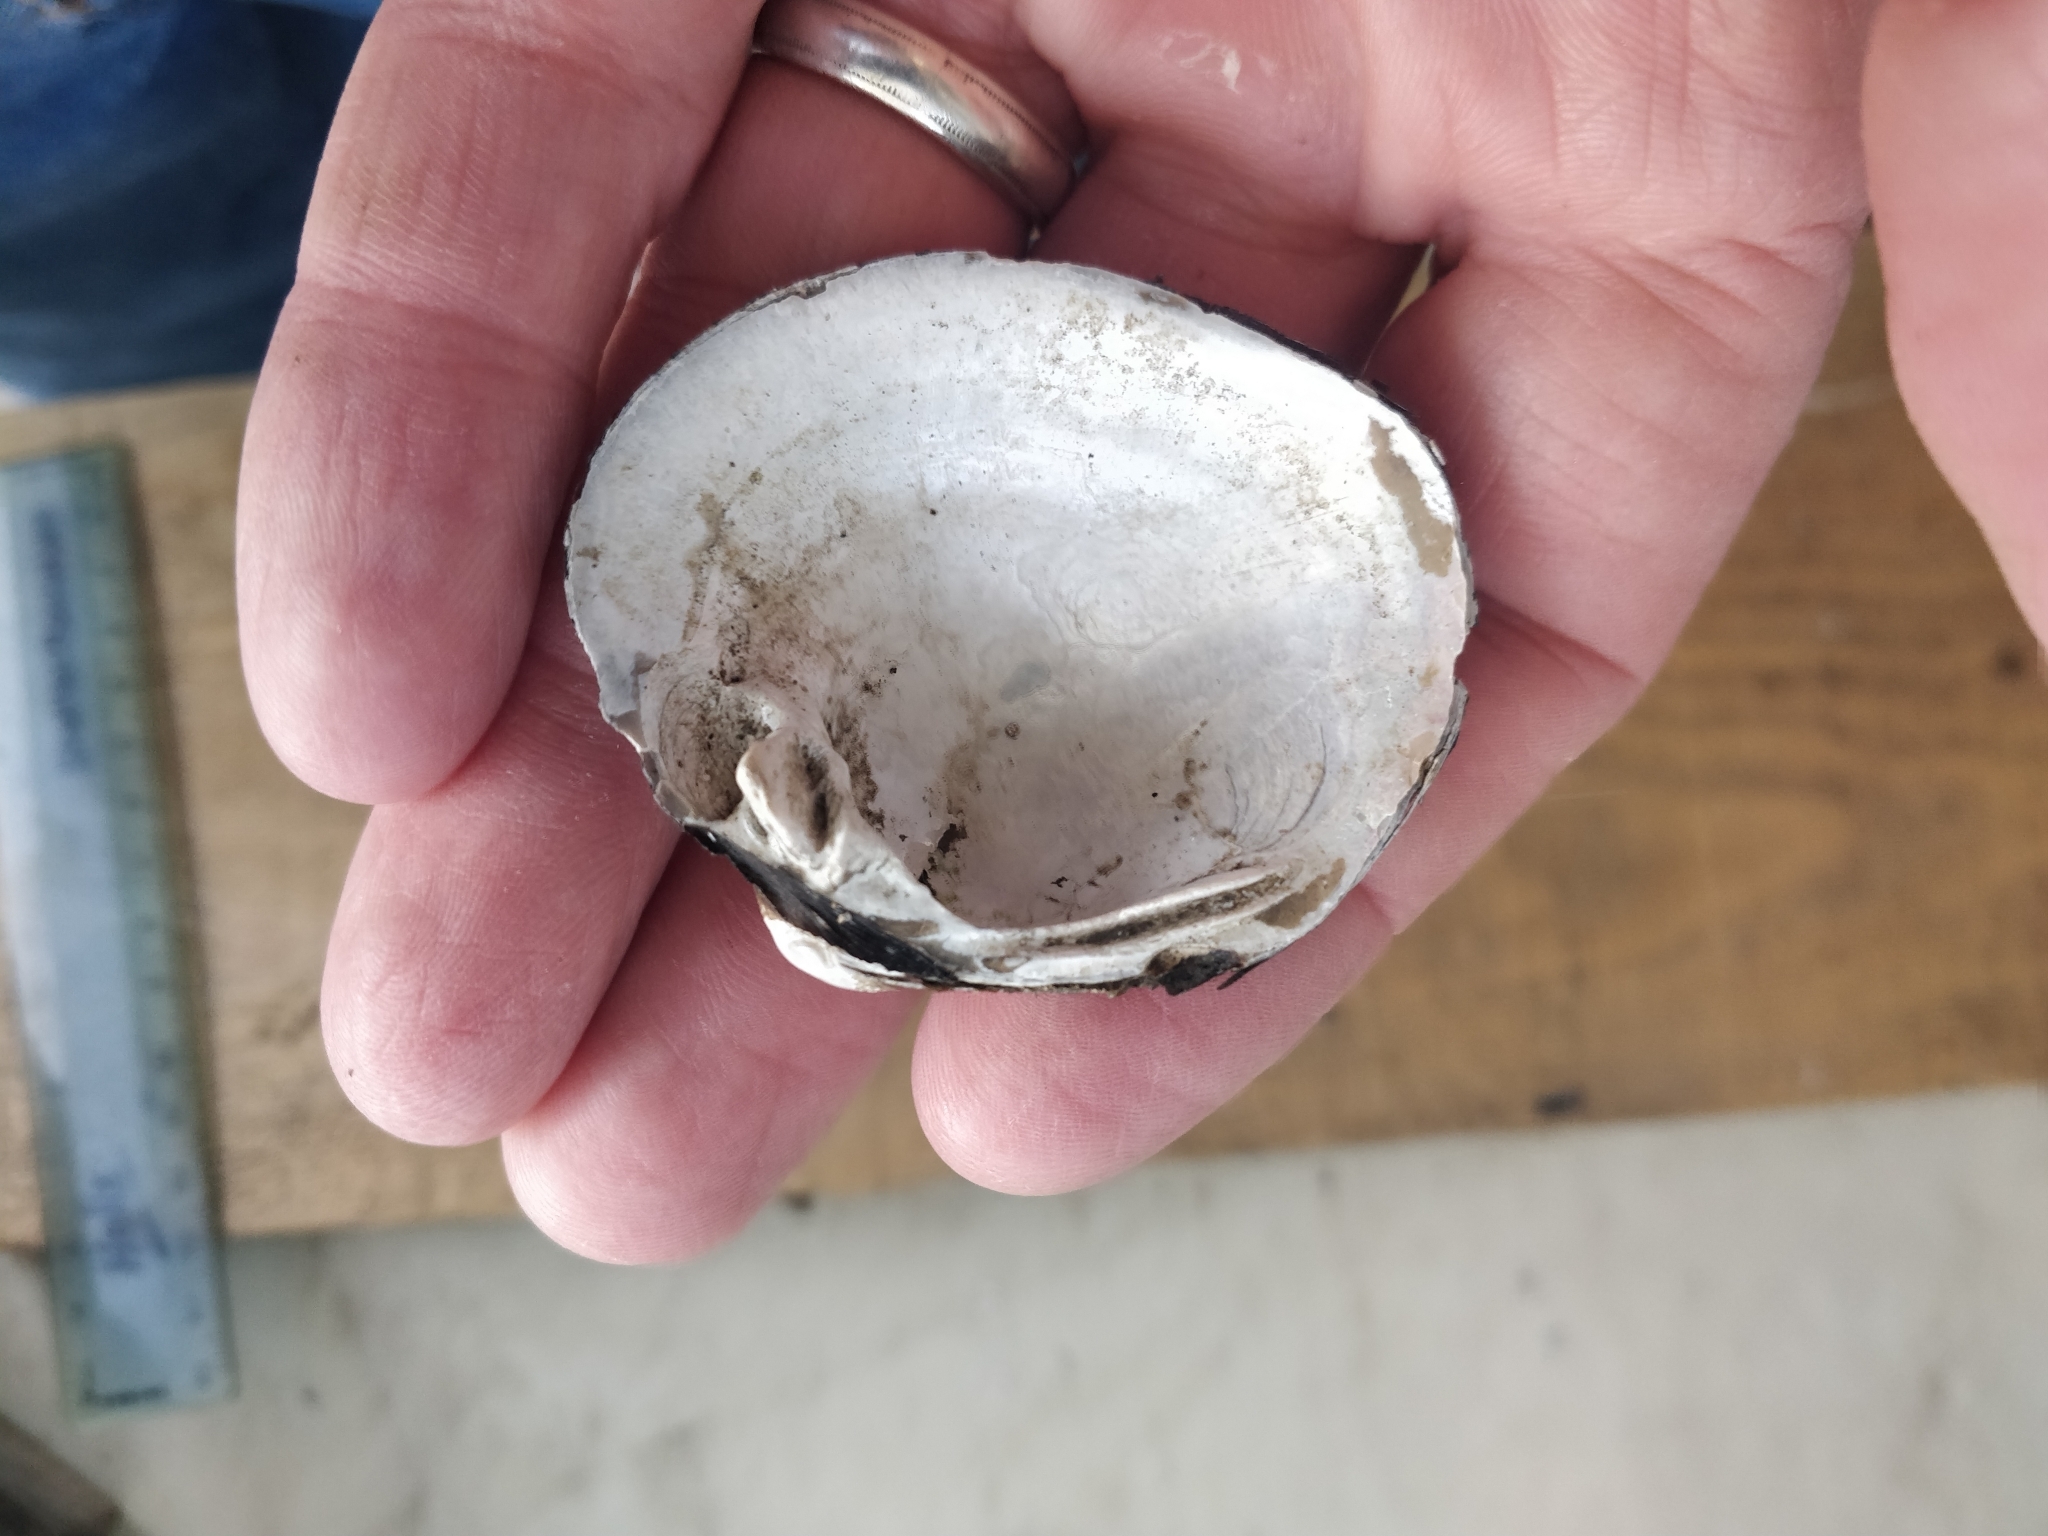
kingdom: Animalia
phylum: Mollusca
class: Bivalvia
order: Unionida
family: Unionidae
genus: Cyclonaias
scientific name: Cyclonaias pustulosa
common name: Pimpleback
